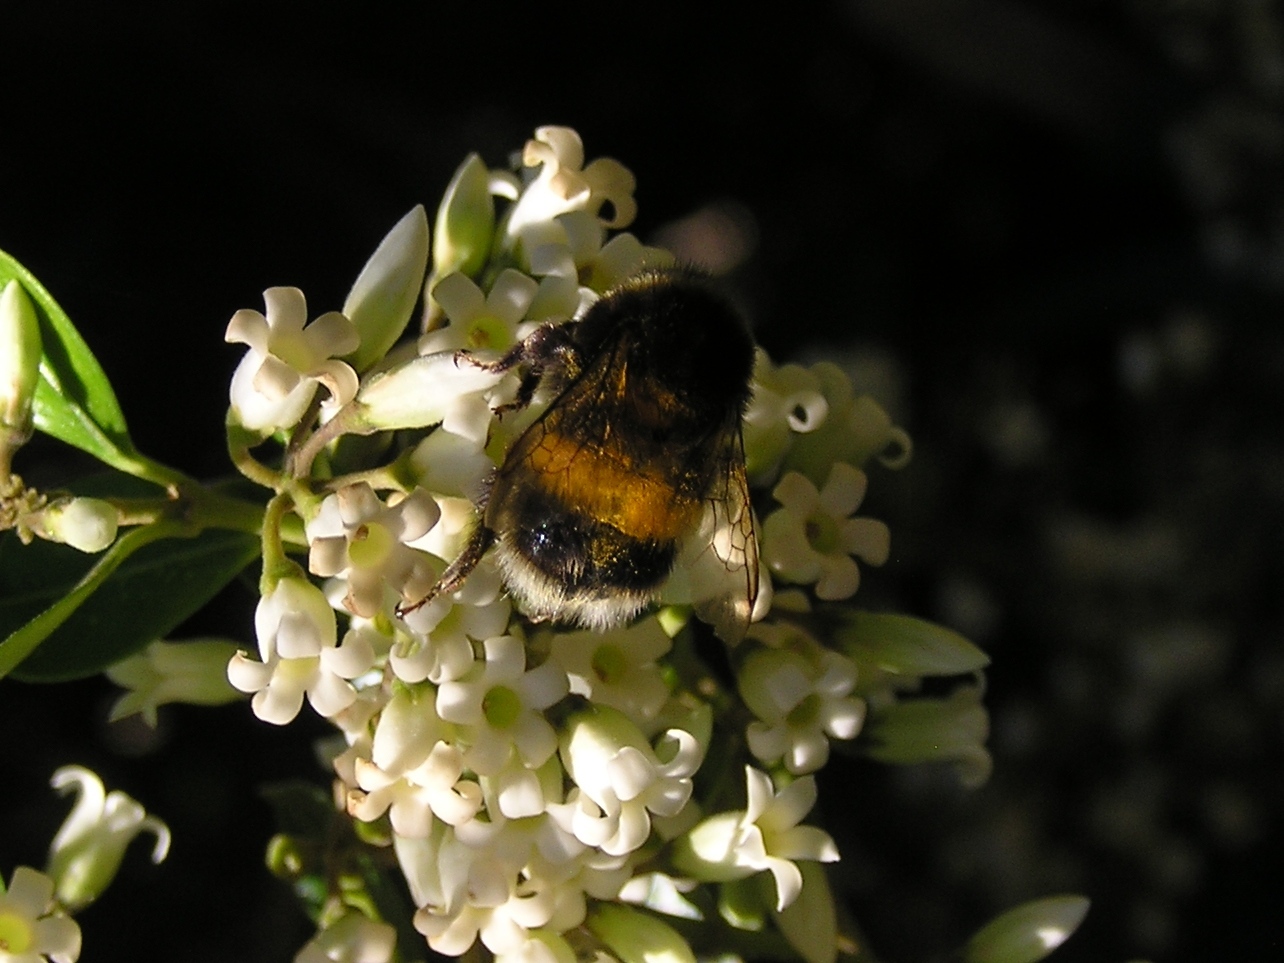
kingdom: Animalia
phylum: Arthropoda
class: Insecta
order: Hymenoptera
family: Apidae
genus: Bombus
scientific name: Bombus terrestris
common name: Buff-tailed bumblebee
